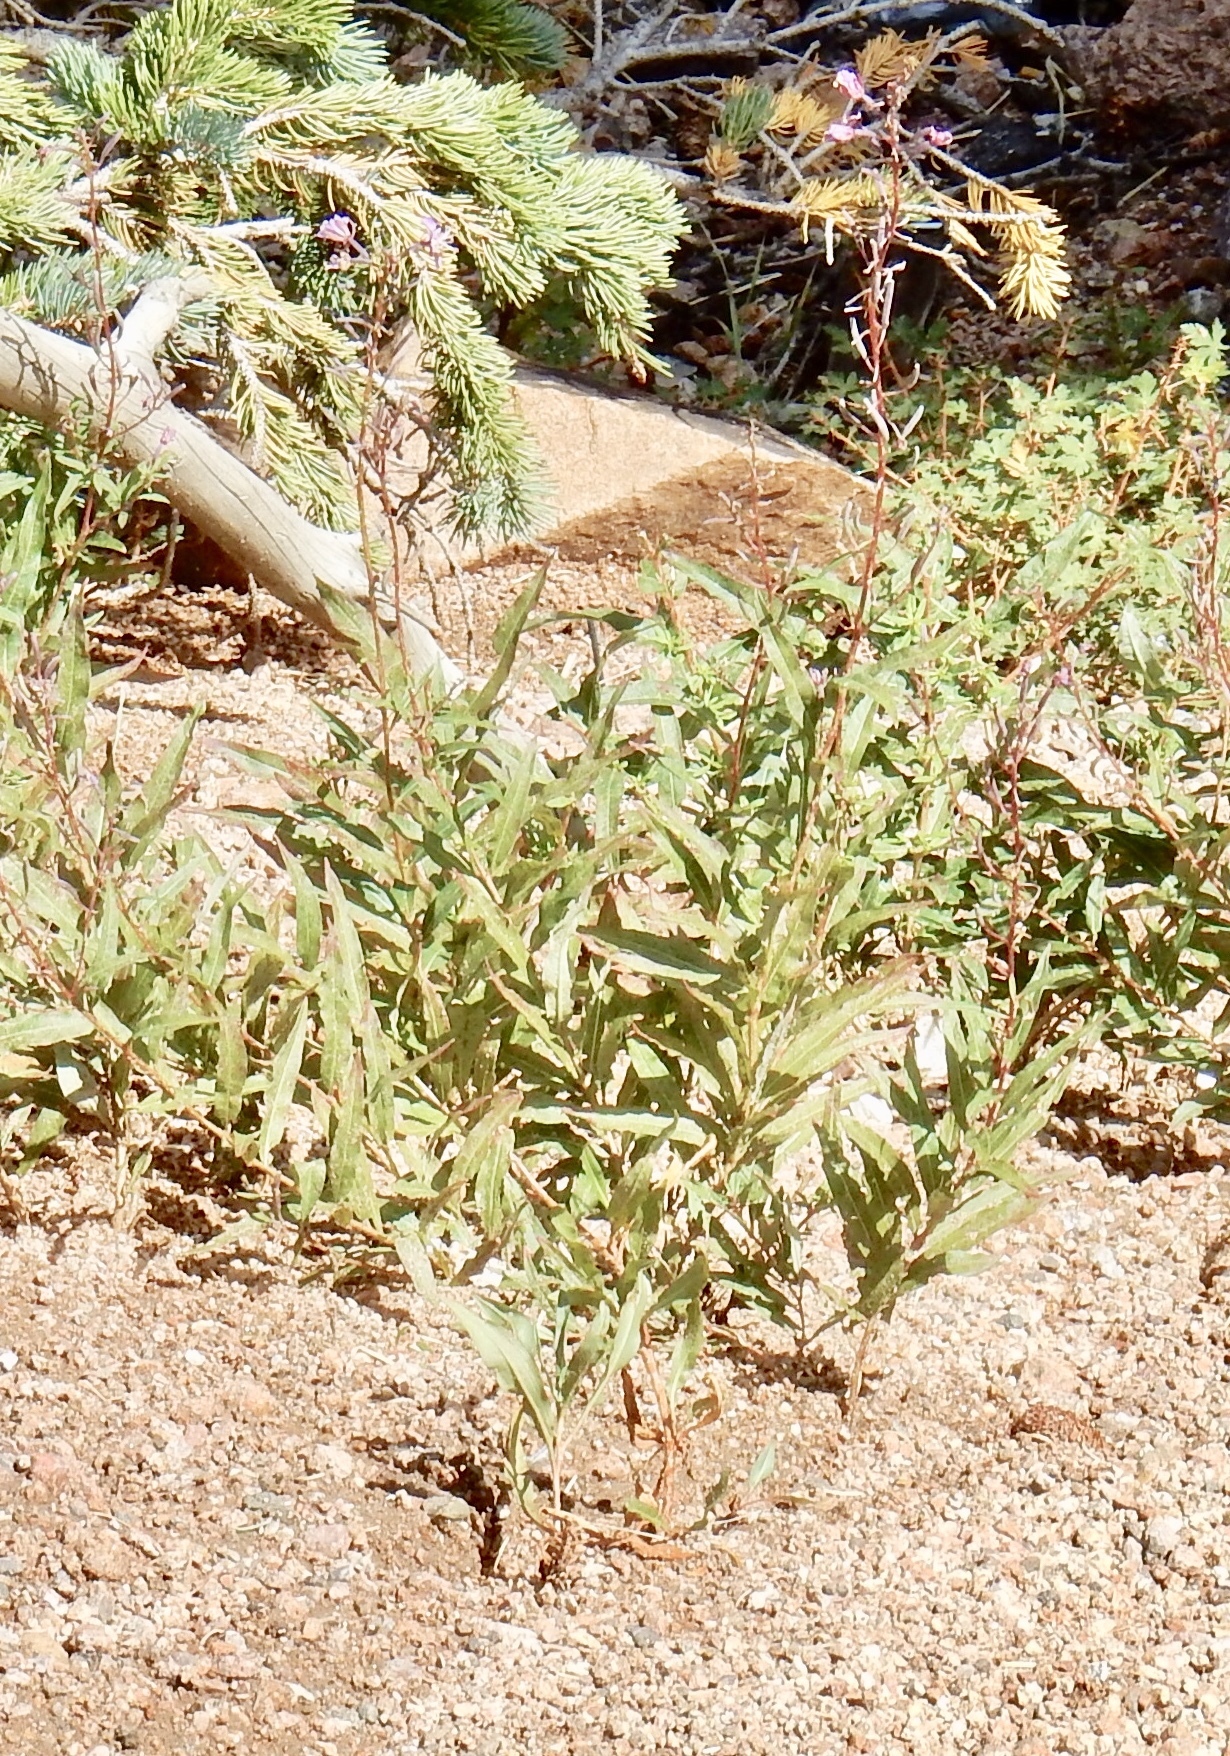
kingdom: Plantae
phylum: Tracheophyta
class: Magnoliopsida
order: Myrtales
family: Onagraceae
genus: Chamaenerion
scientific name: Chamaenerion angustifolium
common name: Fireweed
